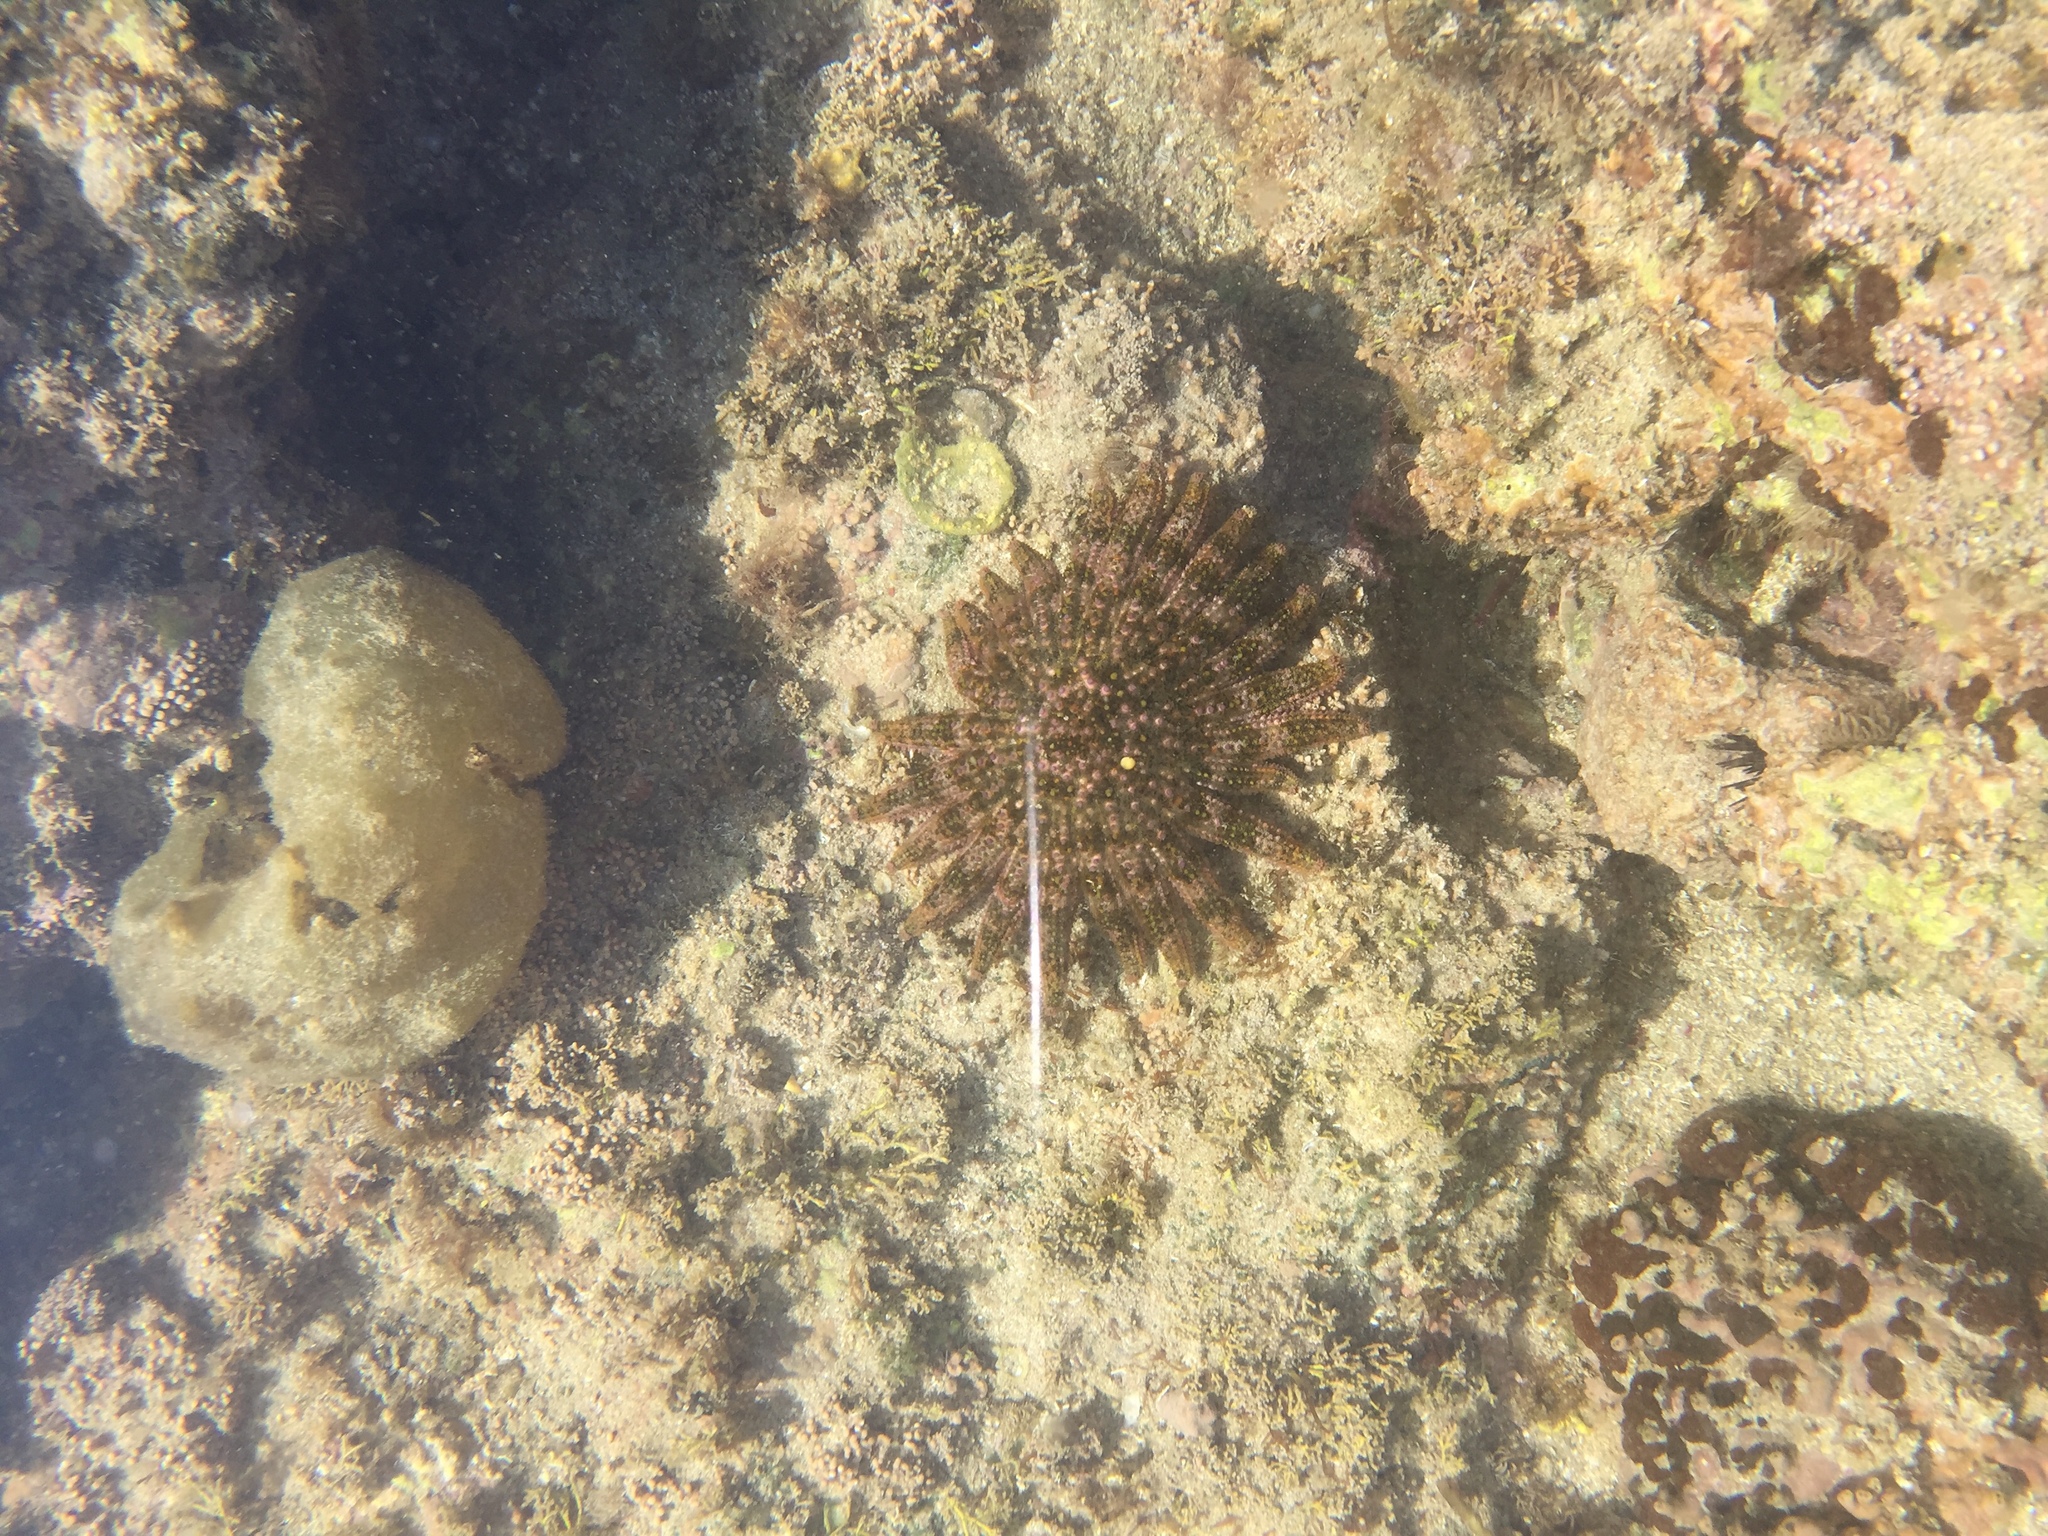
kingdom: Animalia
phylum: Echinodermata
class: Asteroidea
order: Forcipulatida
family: Heliasteridae
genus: Heliaster
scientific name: Heliaster kubiniji
